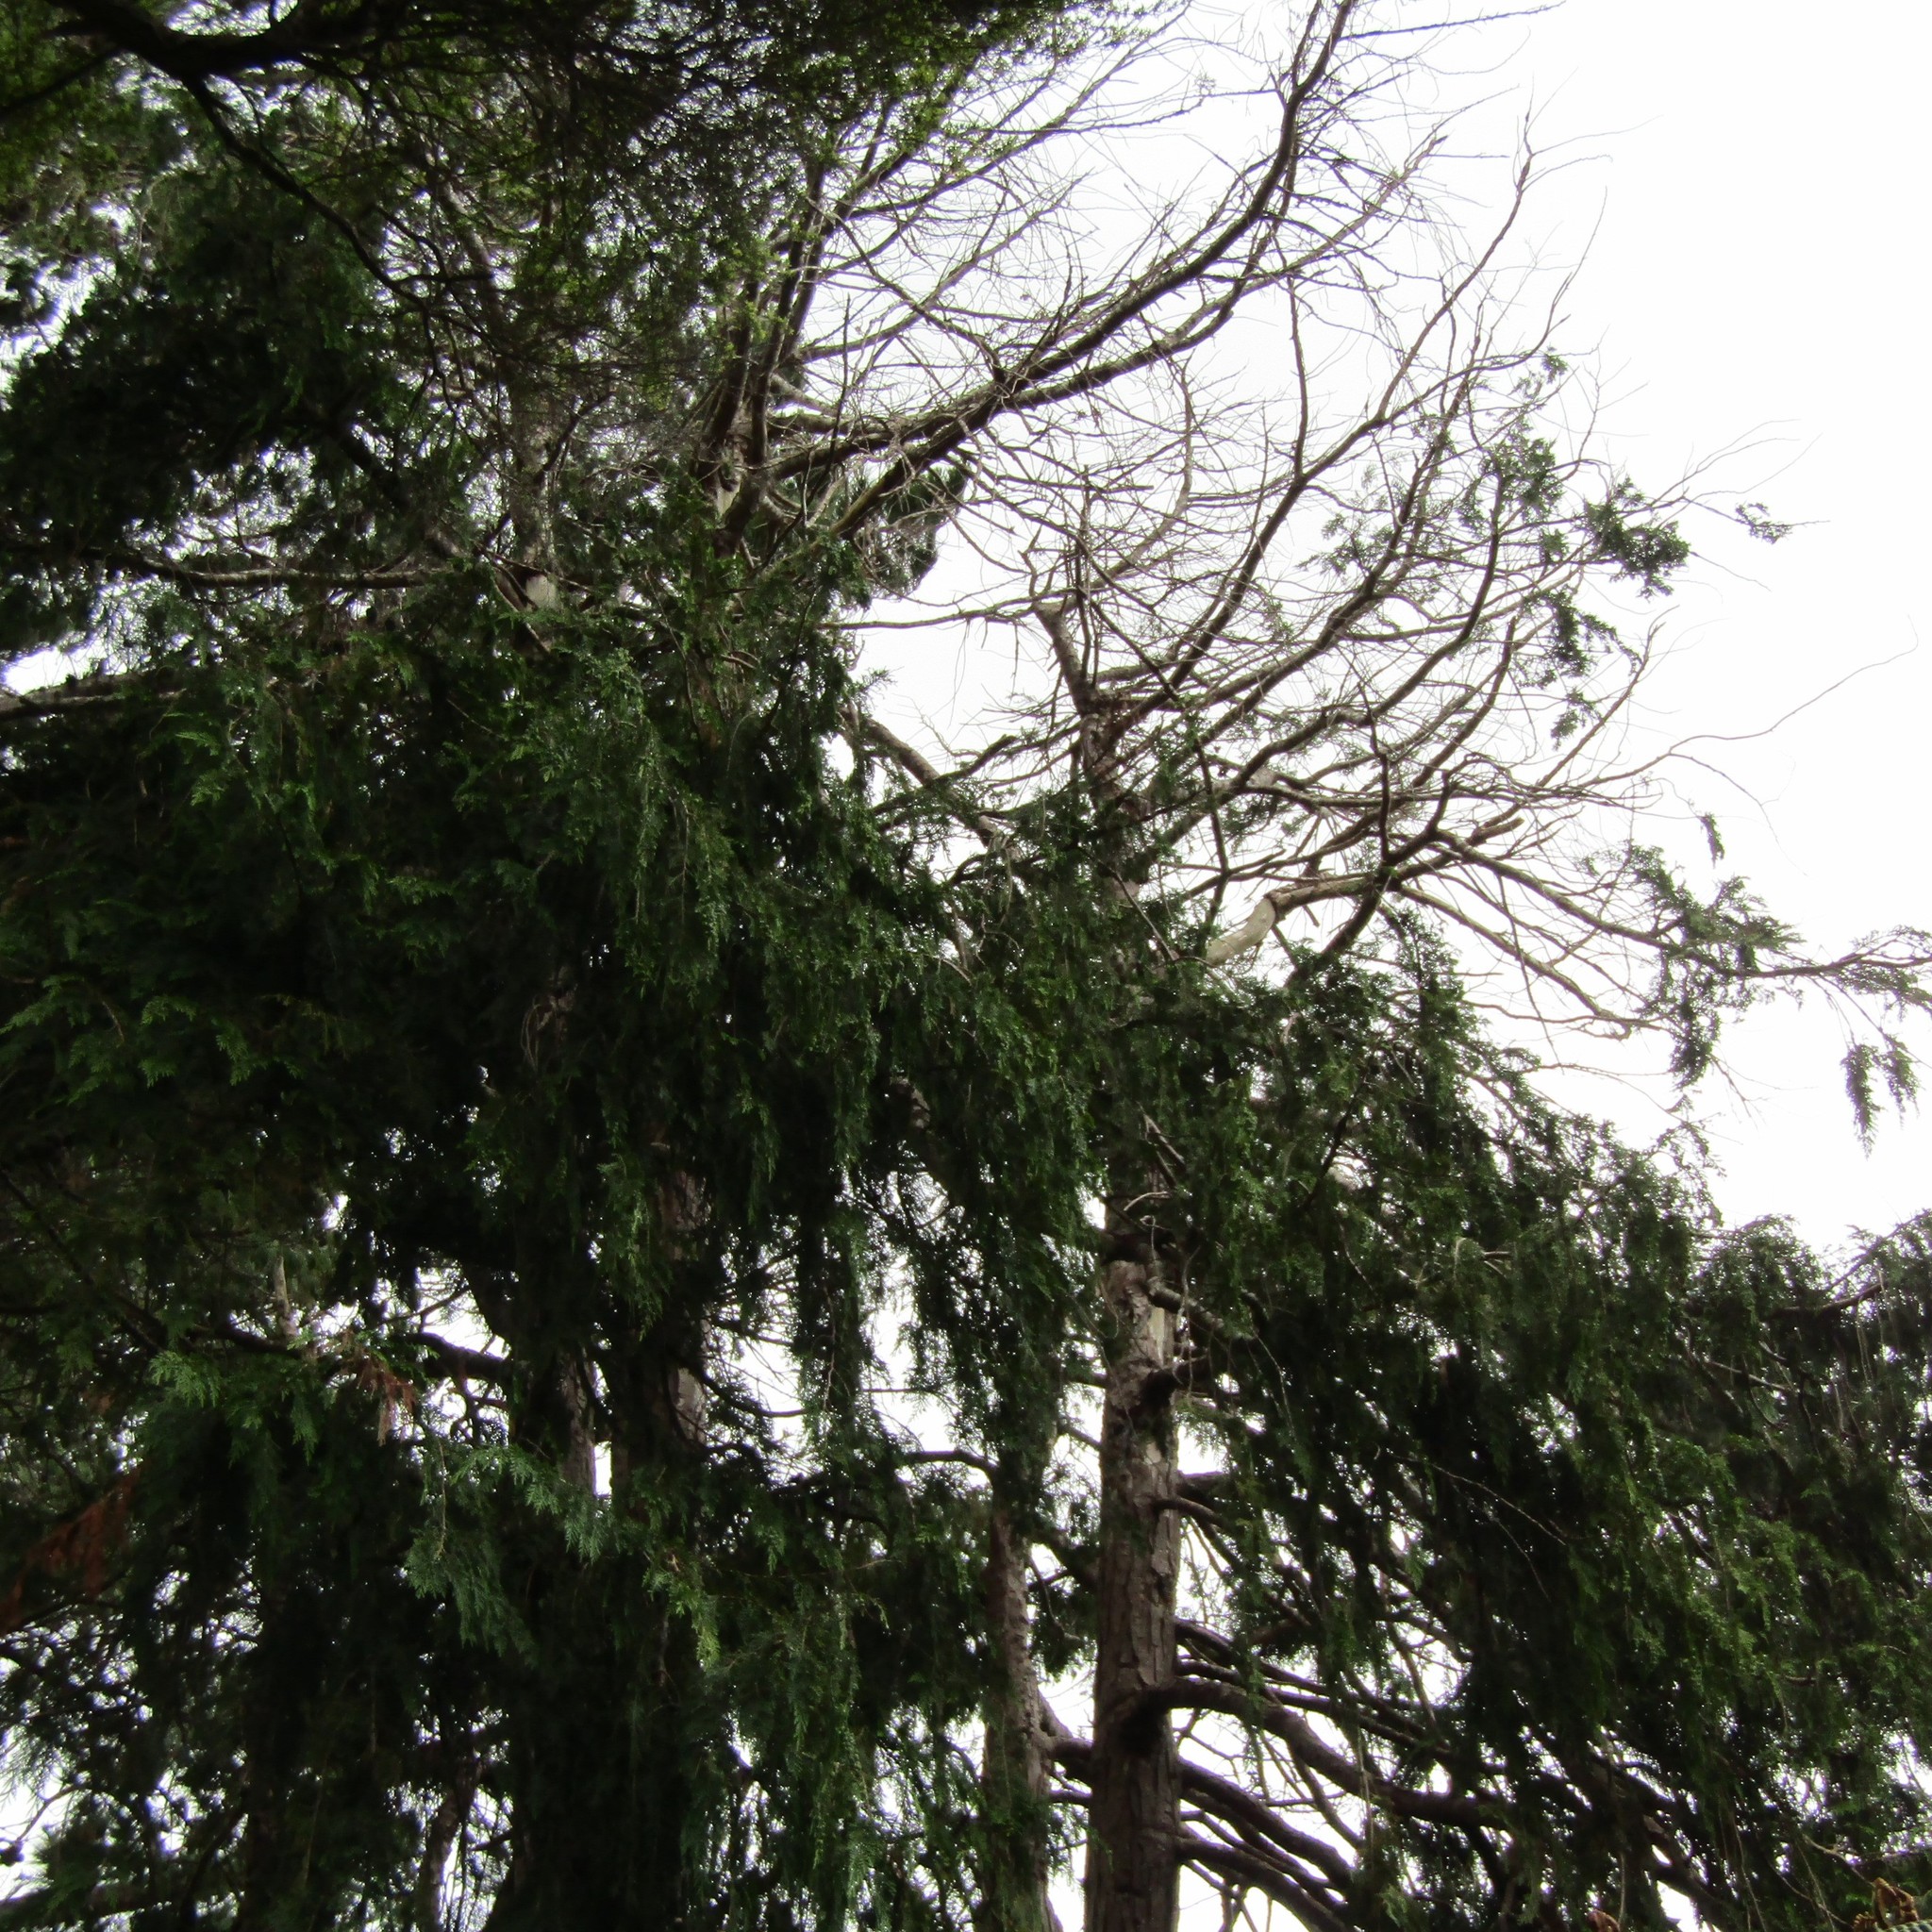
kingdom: Animalia
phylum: Chordata
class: Aves
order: Psittaciformes
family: Psittacidae
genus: Nestor
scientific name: Nestor meridionalis
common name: New zealand kaka
